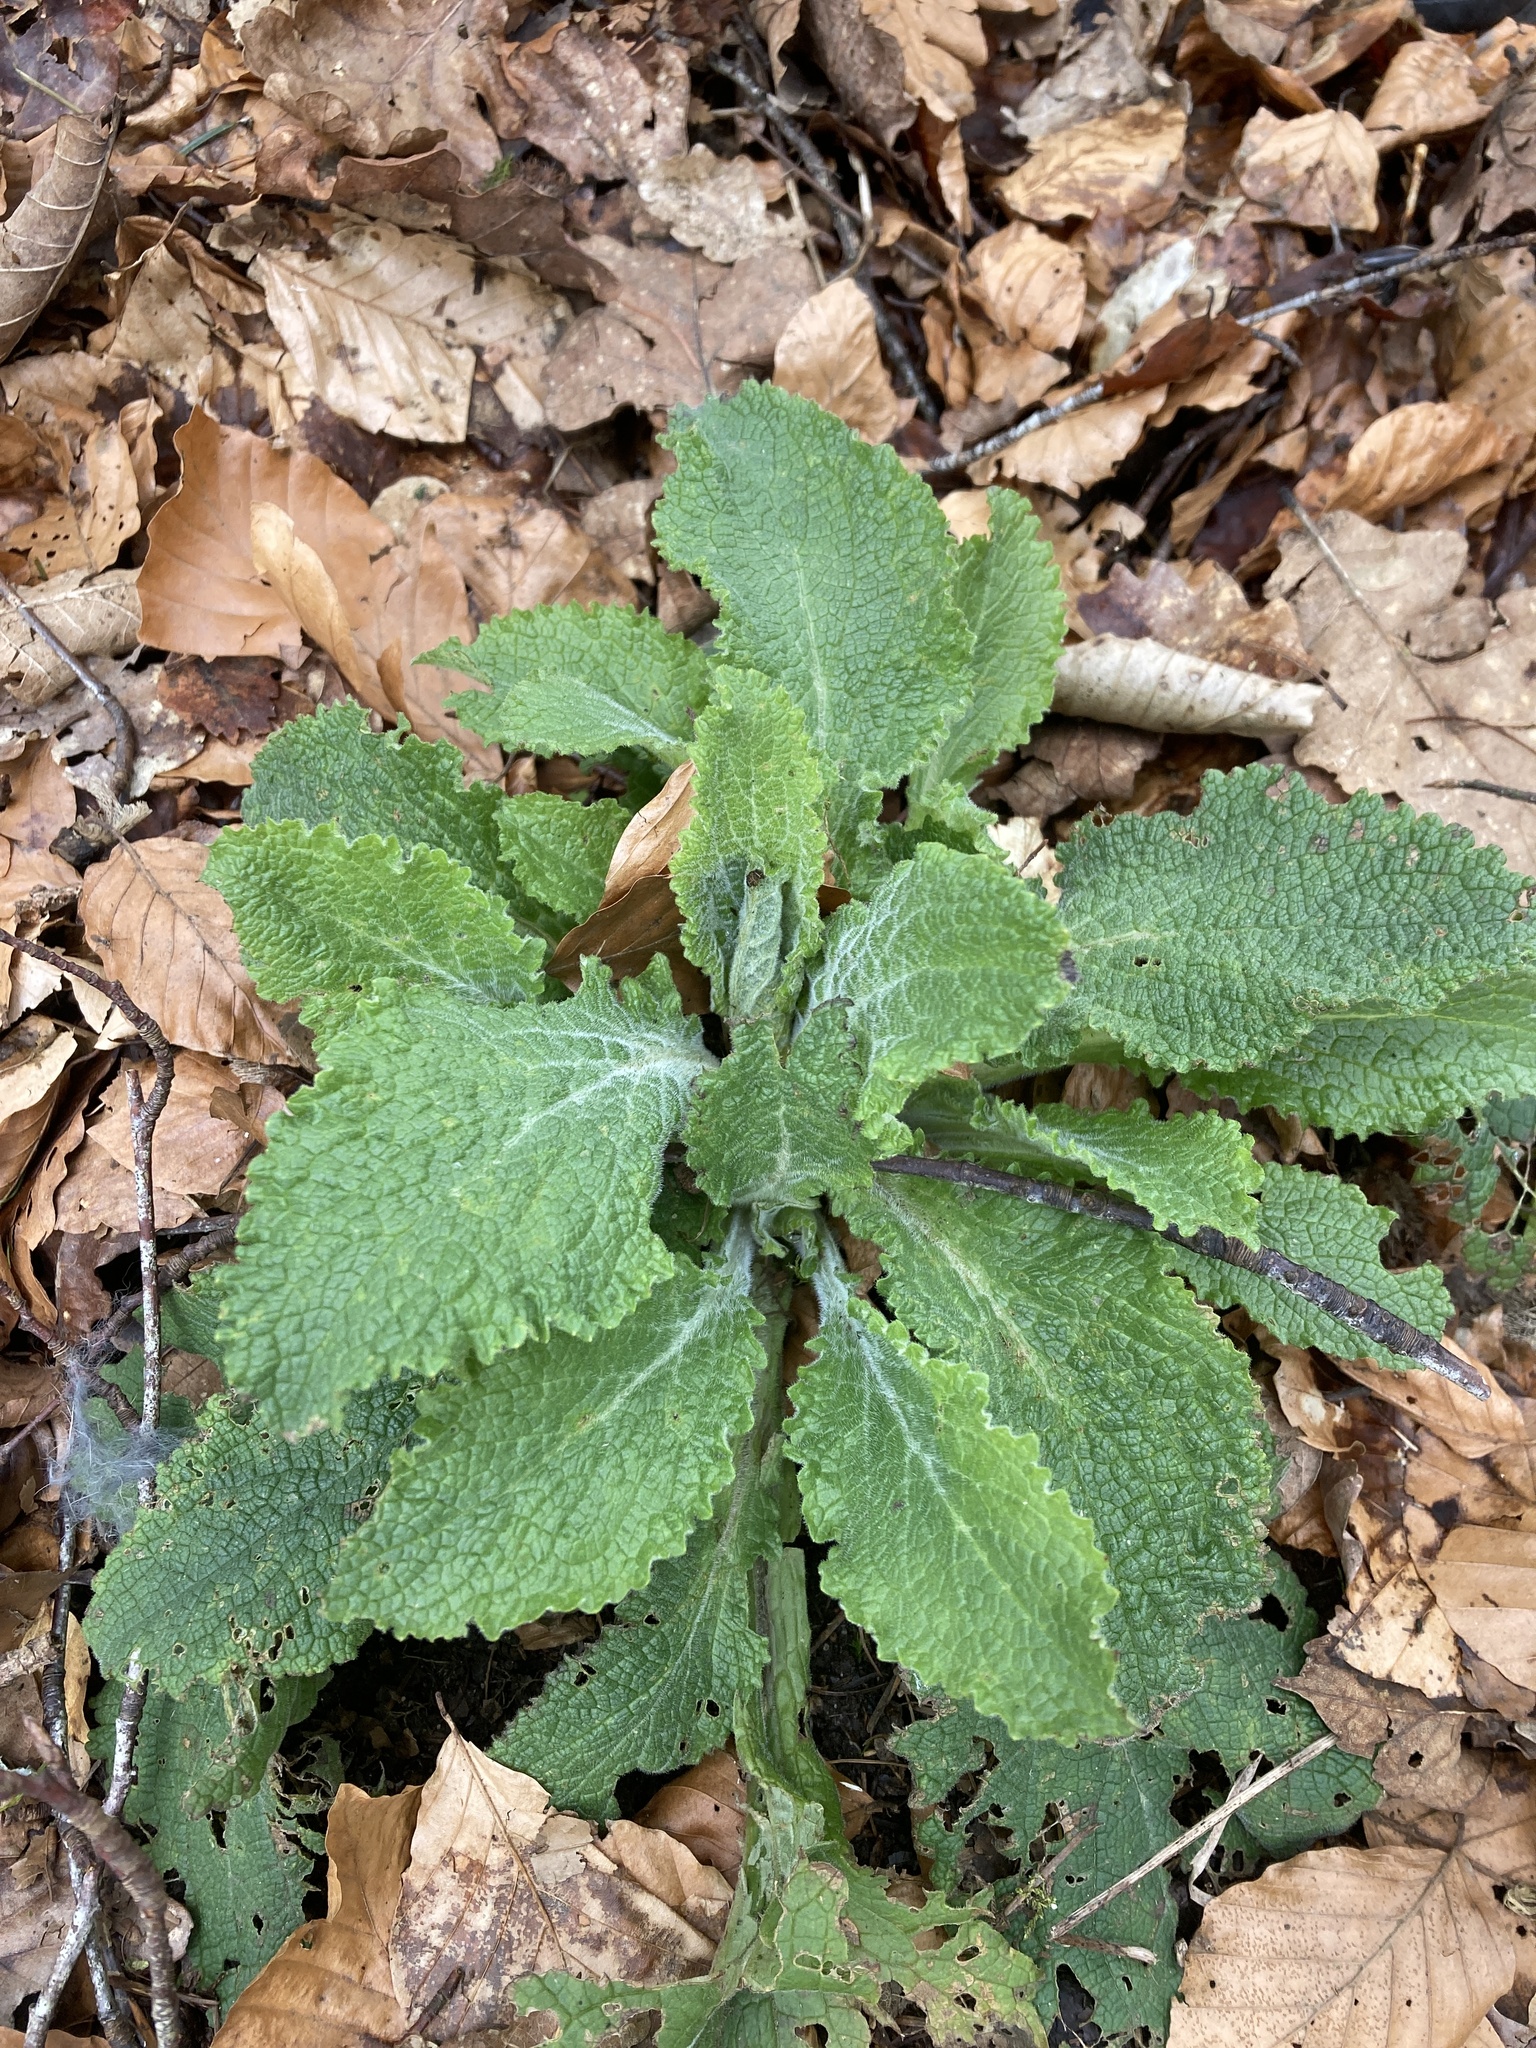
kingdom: Plantae
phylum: Tracheophyta
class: Magnoliopsida
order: Lamiales
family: Plantaginaceae
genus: Digitalis
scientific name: Digitalis purpurea
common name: Foxglove
